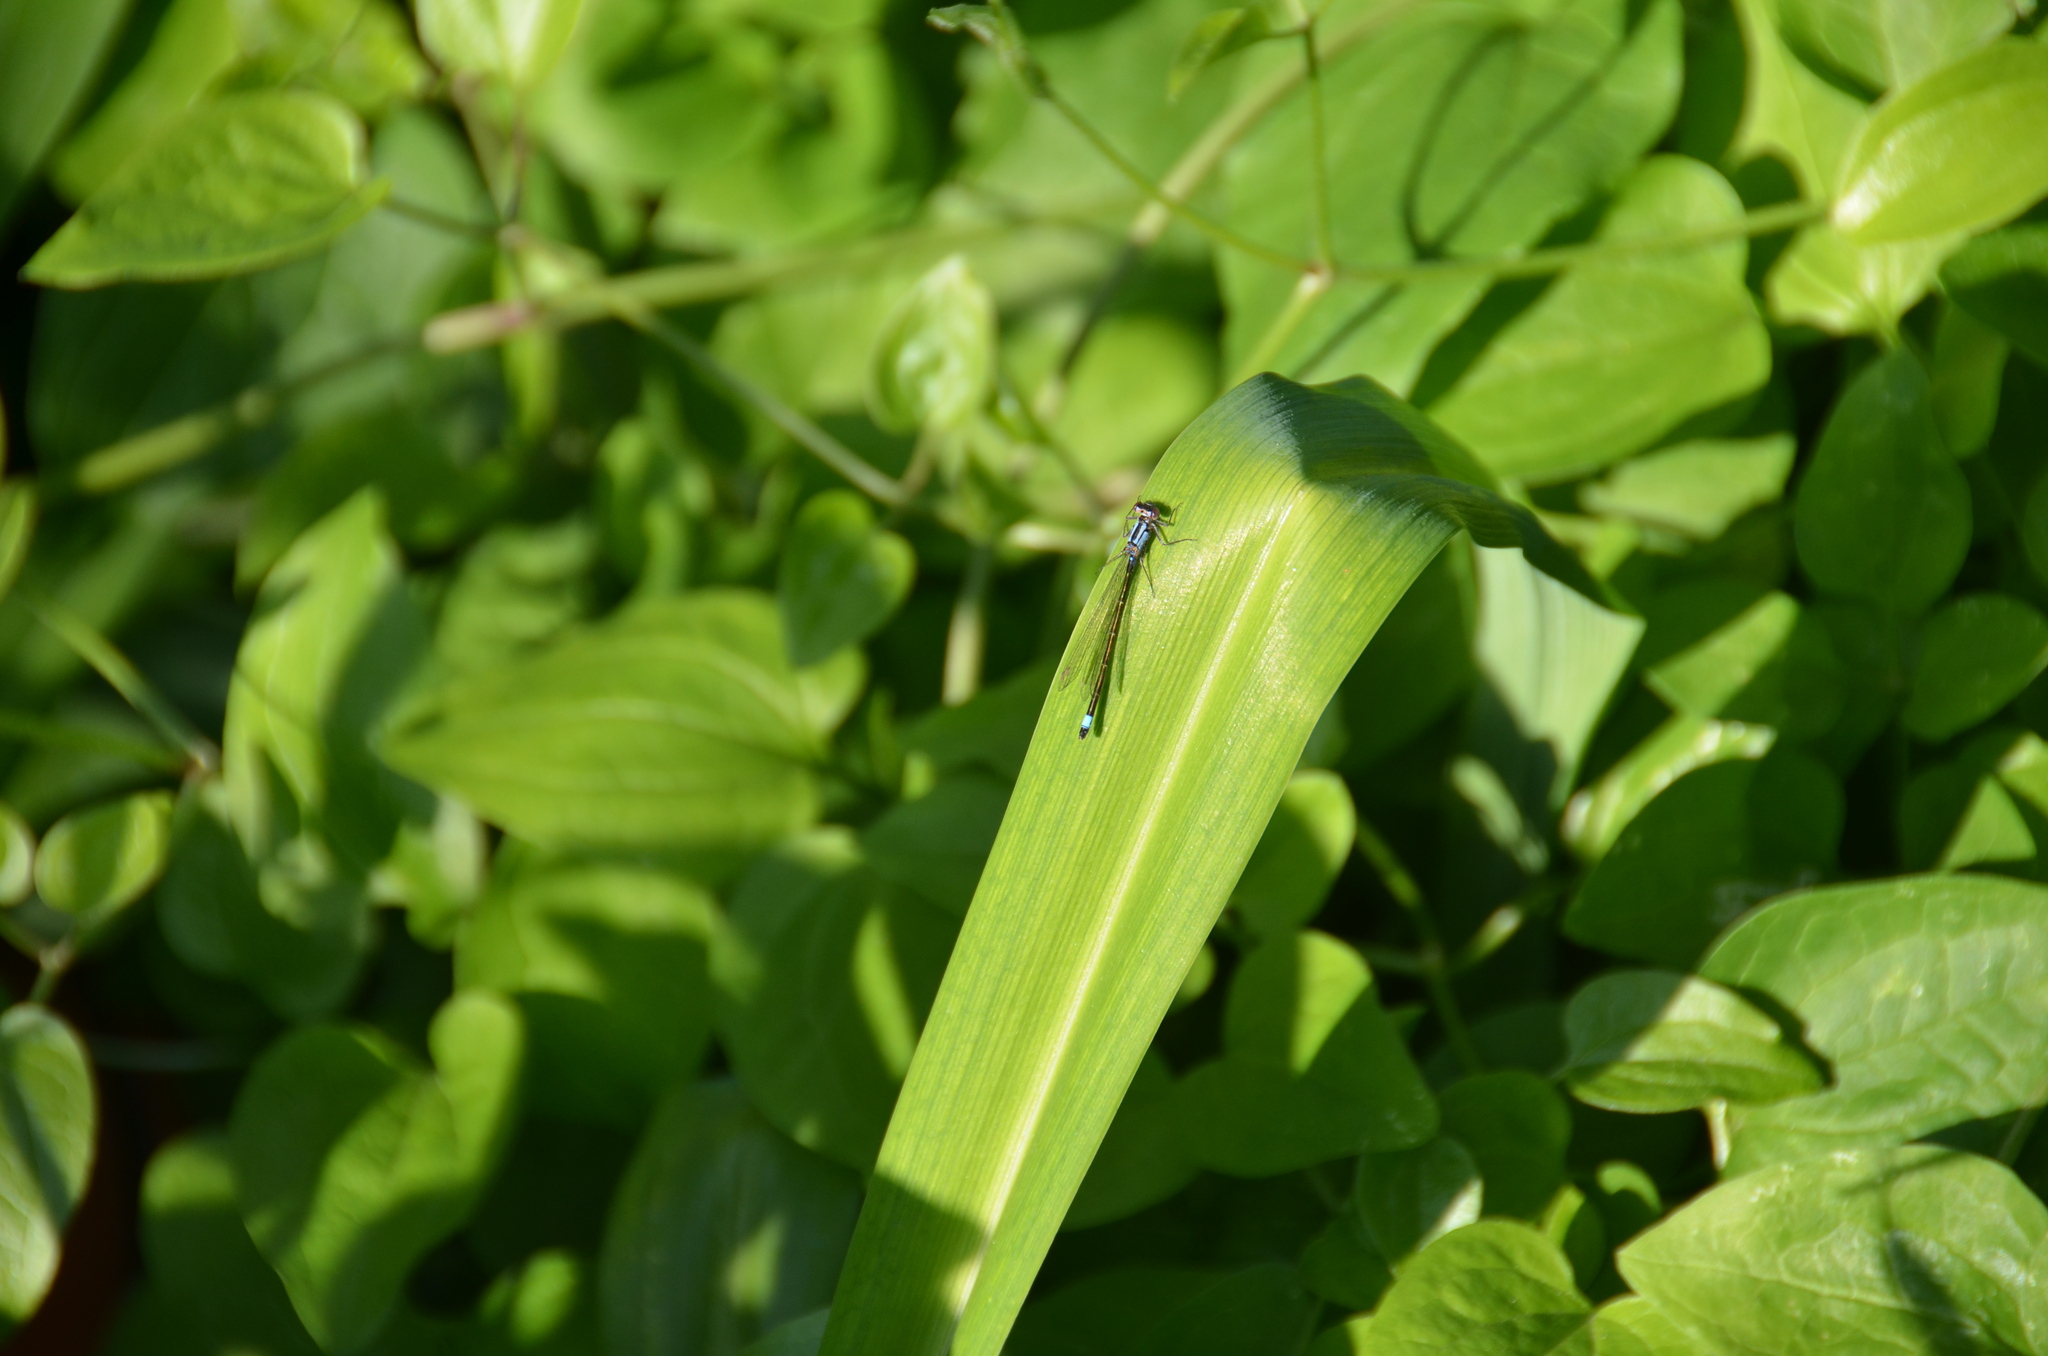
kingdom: Animalia
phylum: Arthropoda
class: Insecta
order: Odonata
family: Coenagrionidae
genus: Ischnura
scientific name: Ischnura cervula
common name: Pacific forktail
